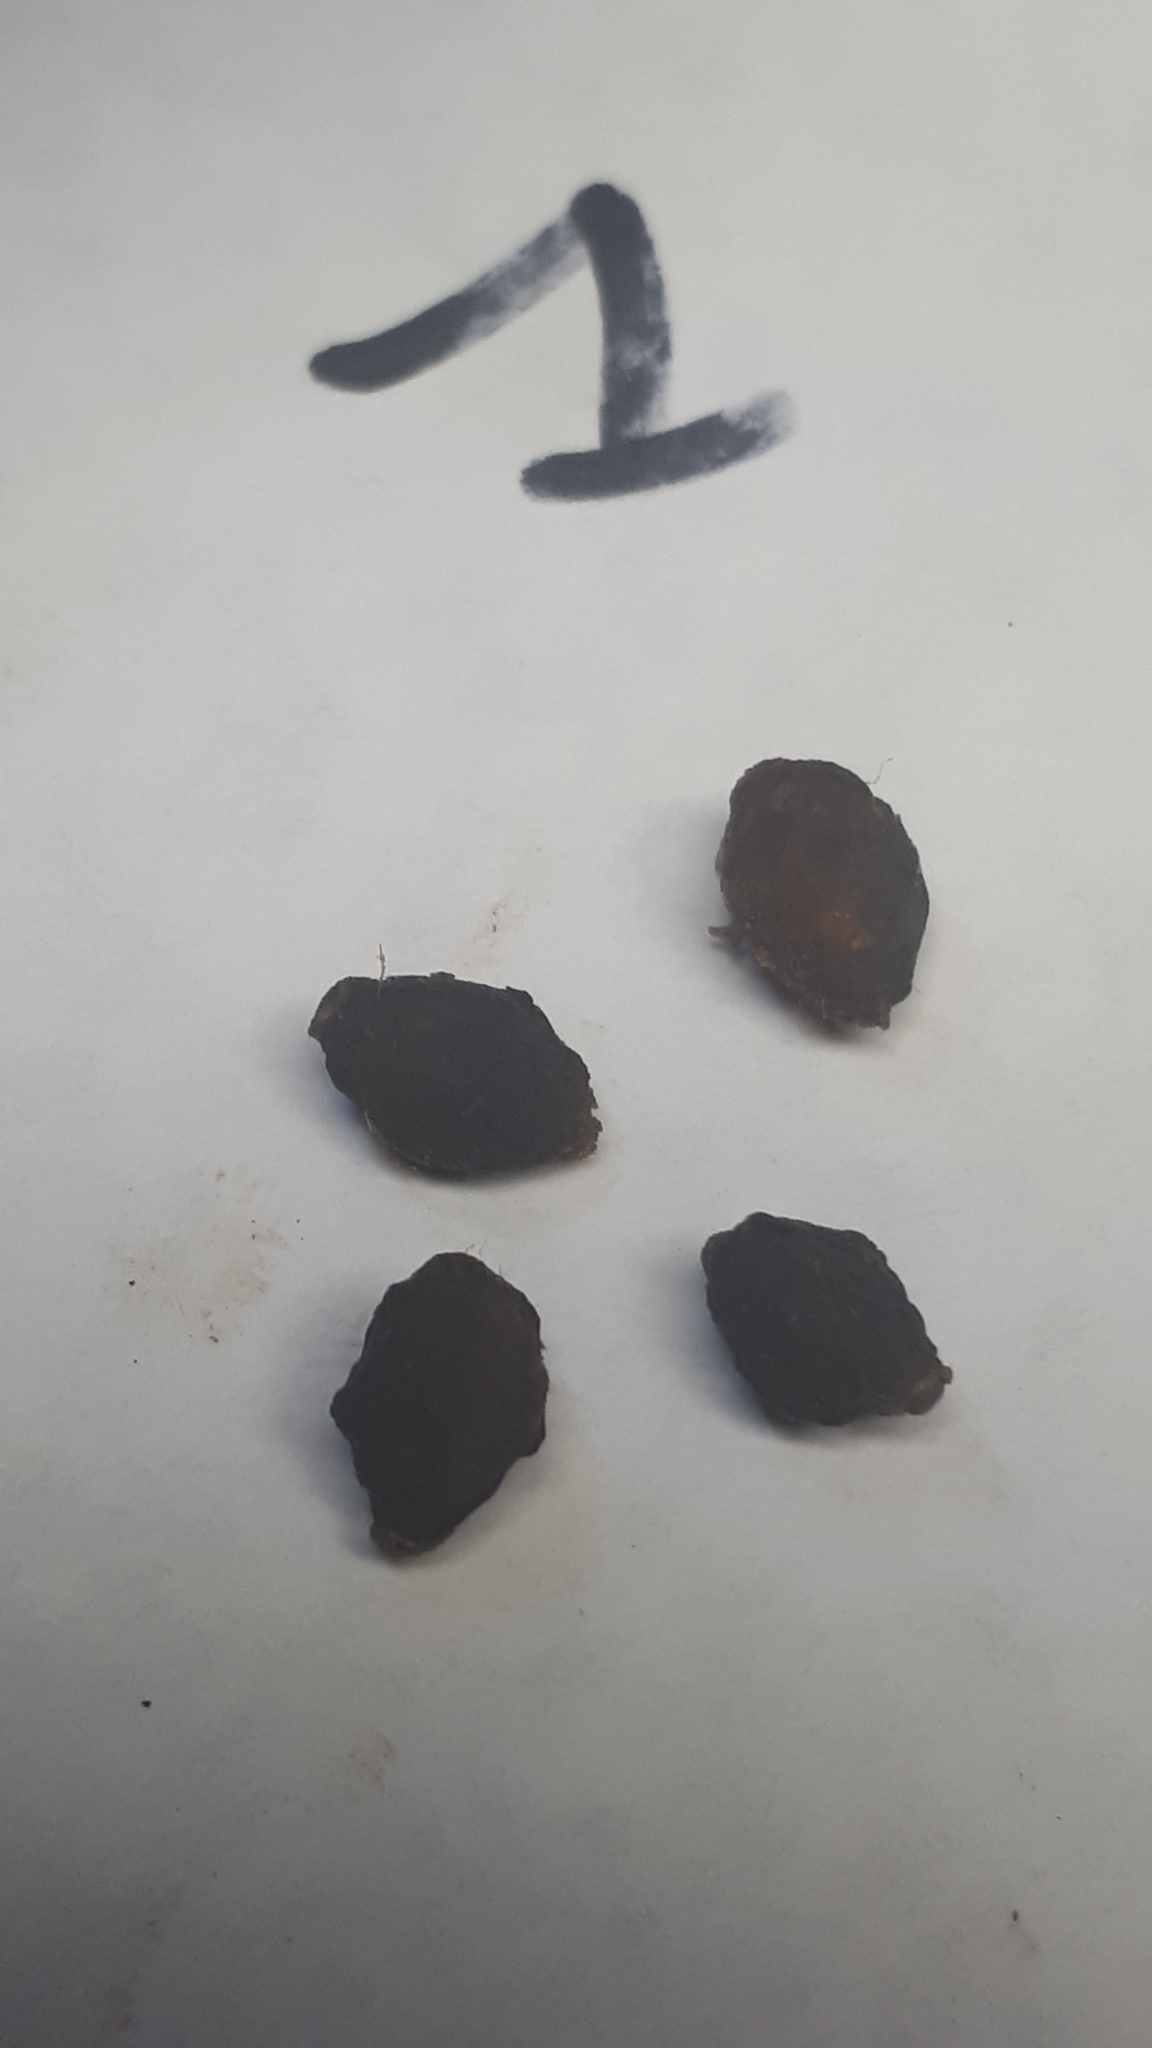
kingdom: Plantae
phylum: Tracheophyta
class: Magnoliopsida
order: Rosales
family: Cannabaceae
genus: Celtis
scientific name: Celtis tala
